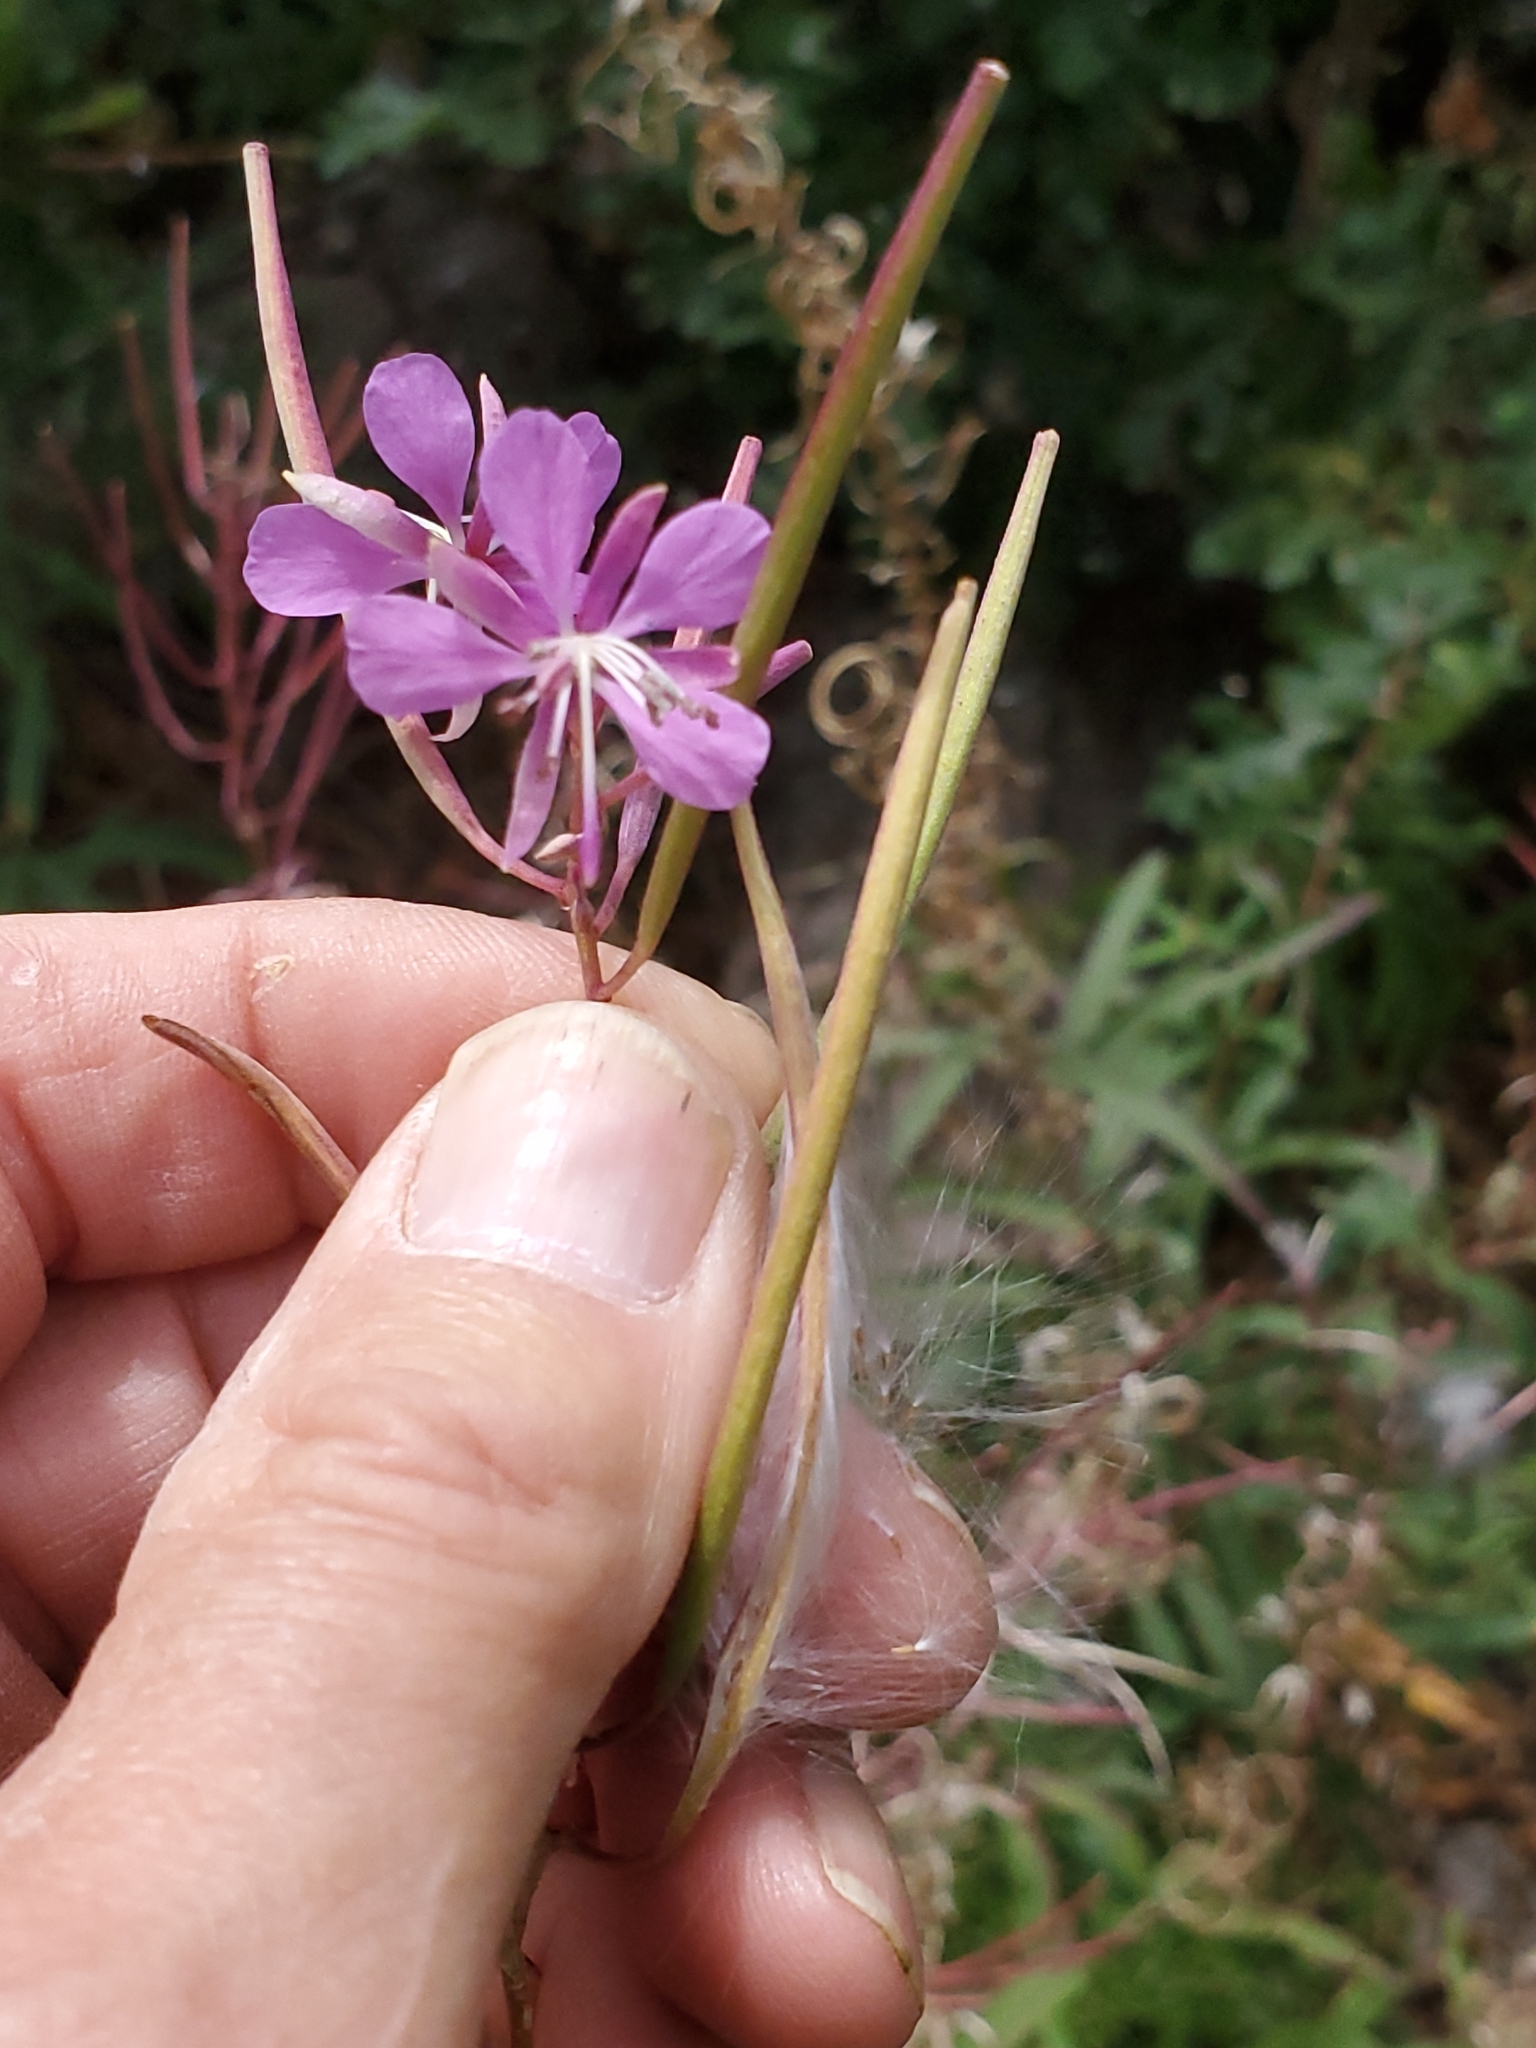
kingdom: Plantae
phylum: Tracheophyta
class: Magnoliopsida
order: Myrtales
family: Onagraceae
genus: Chamaenerion
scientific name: Chamaenerion angustifolium
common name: Fireweed
